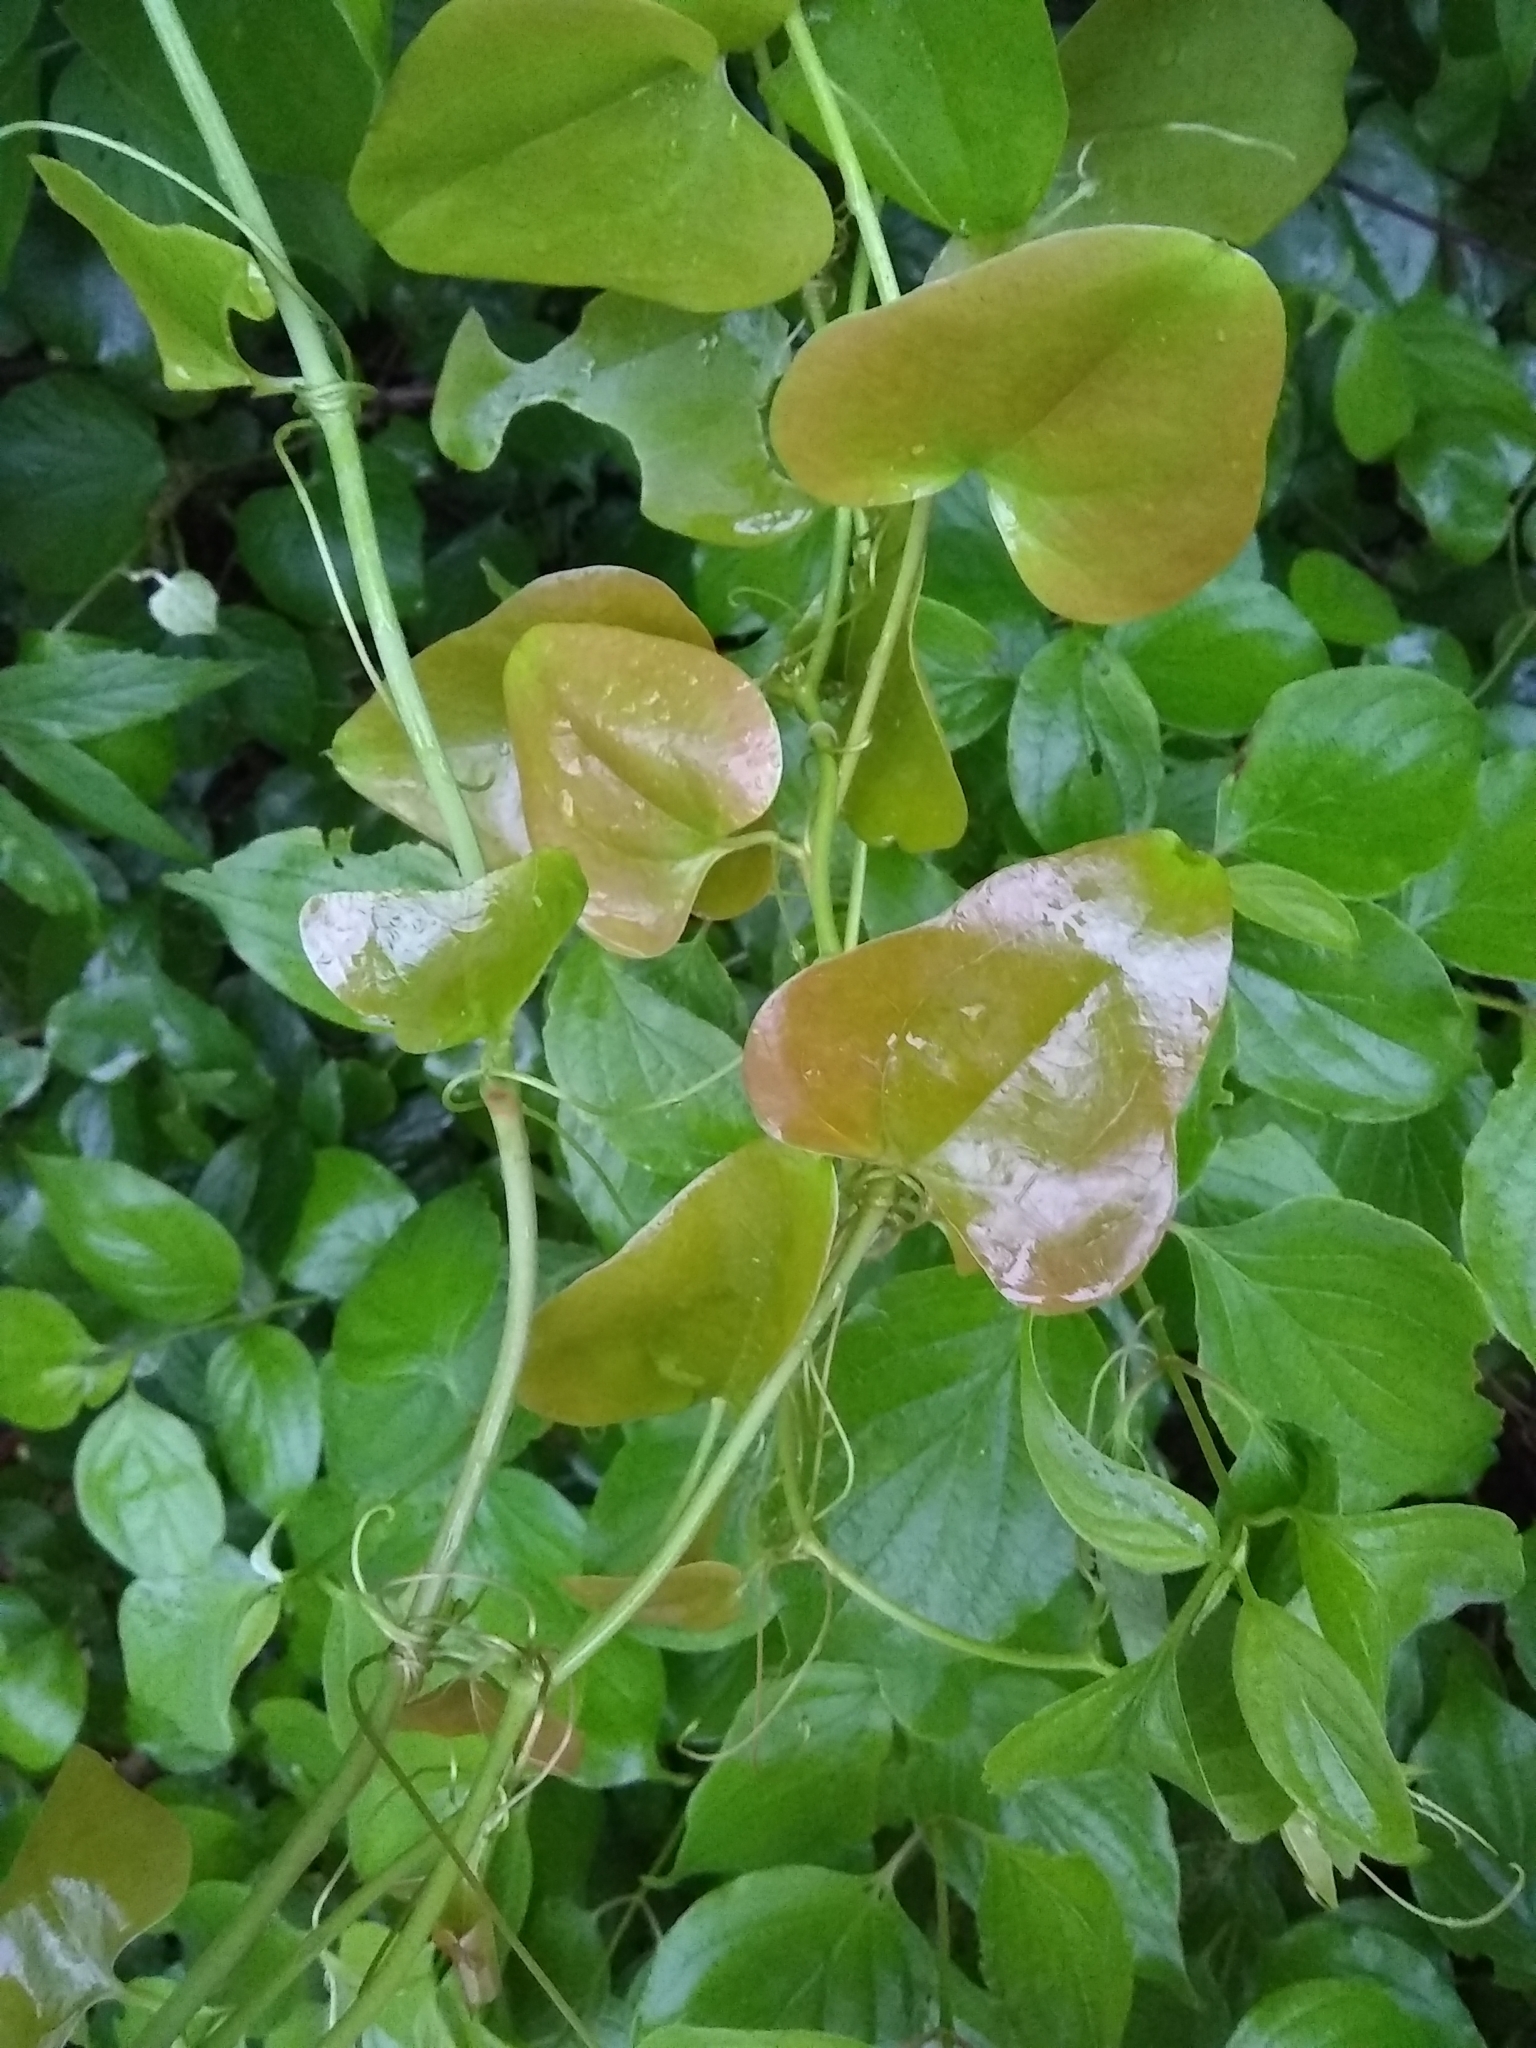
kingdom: Plantae
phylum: Tracheophyta
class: Liliopsida
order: Liliales
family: Smilacaceae
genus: Smilax
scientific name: Smilax bona-nox
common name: Catbrier
